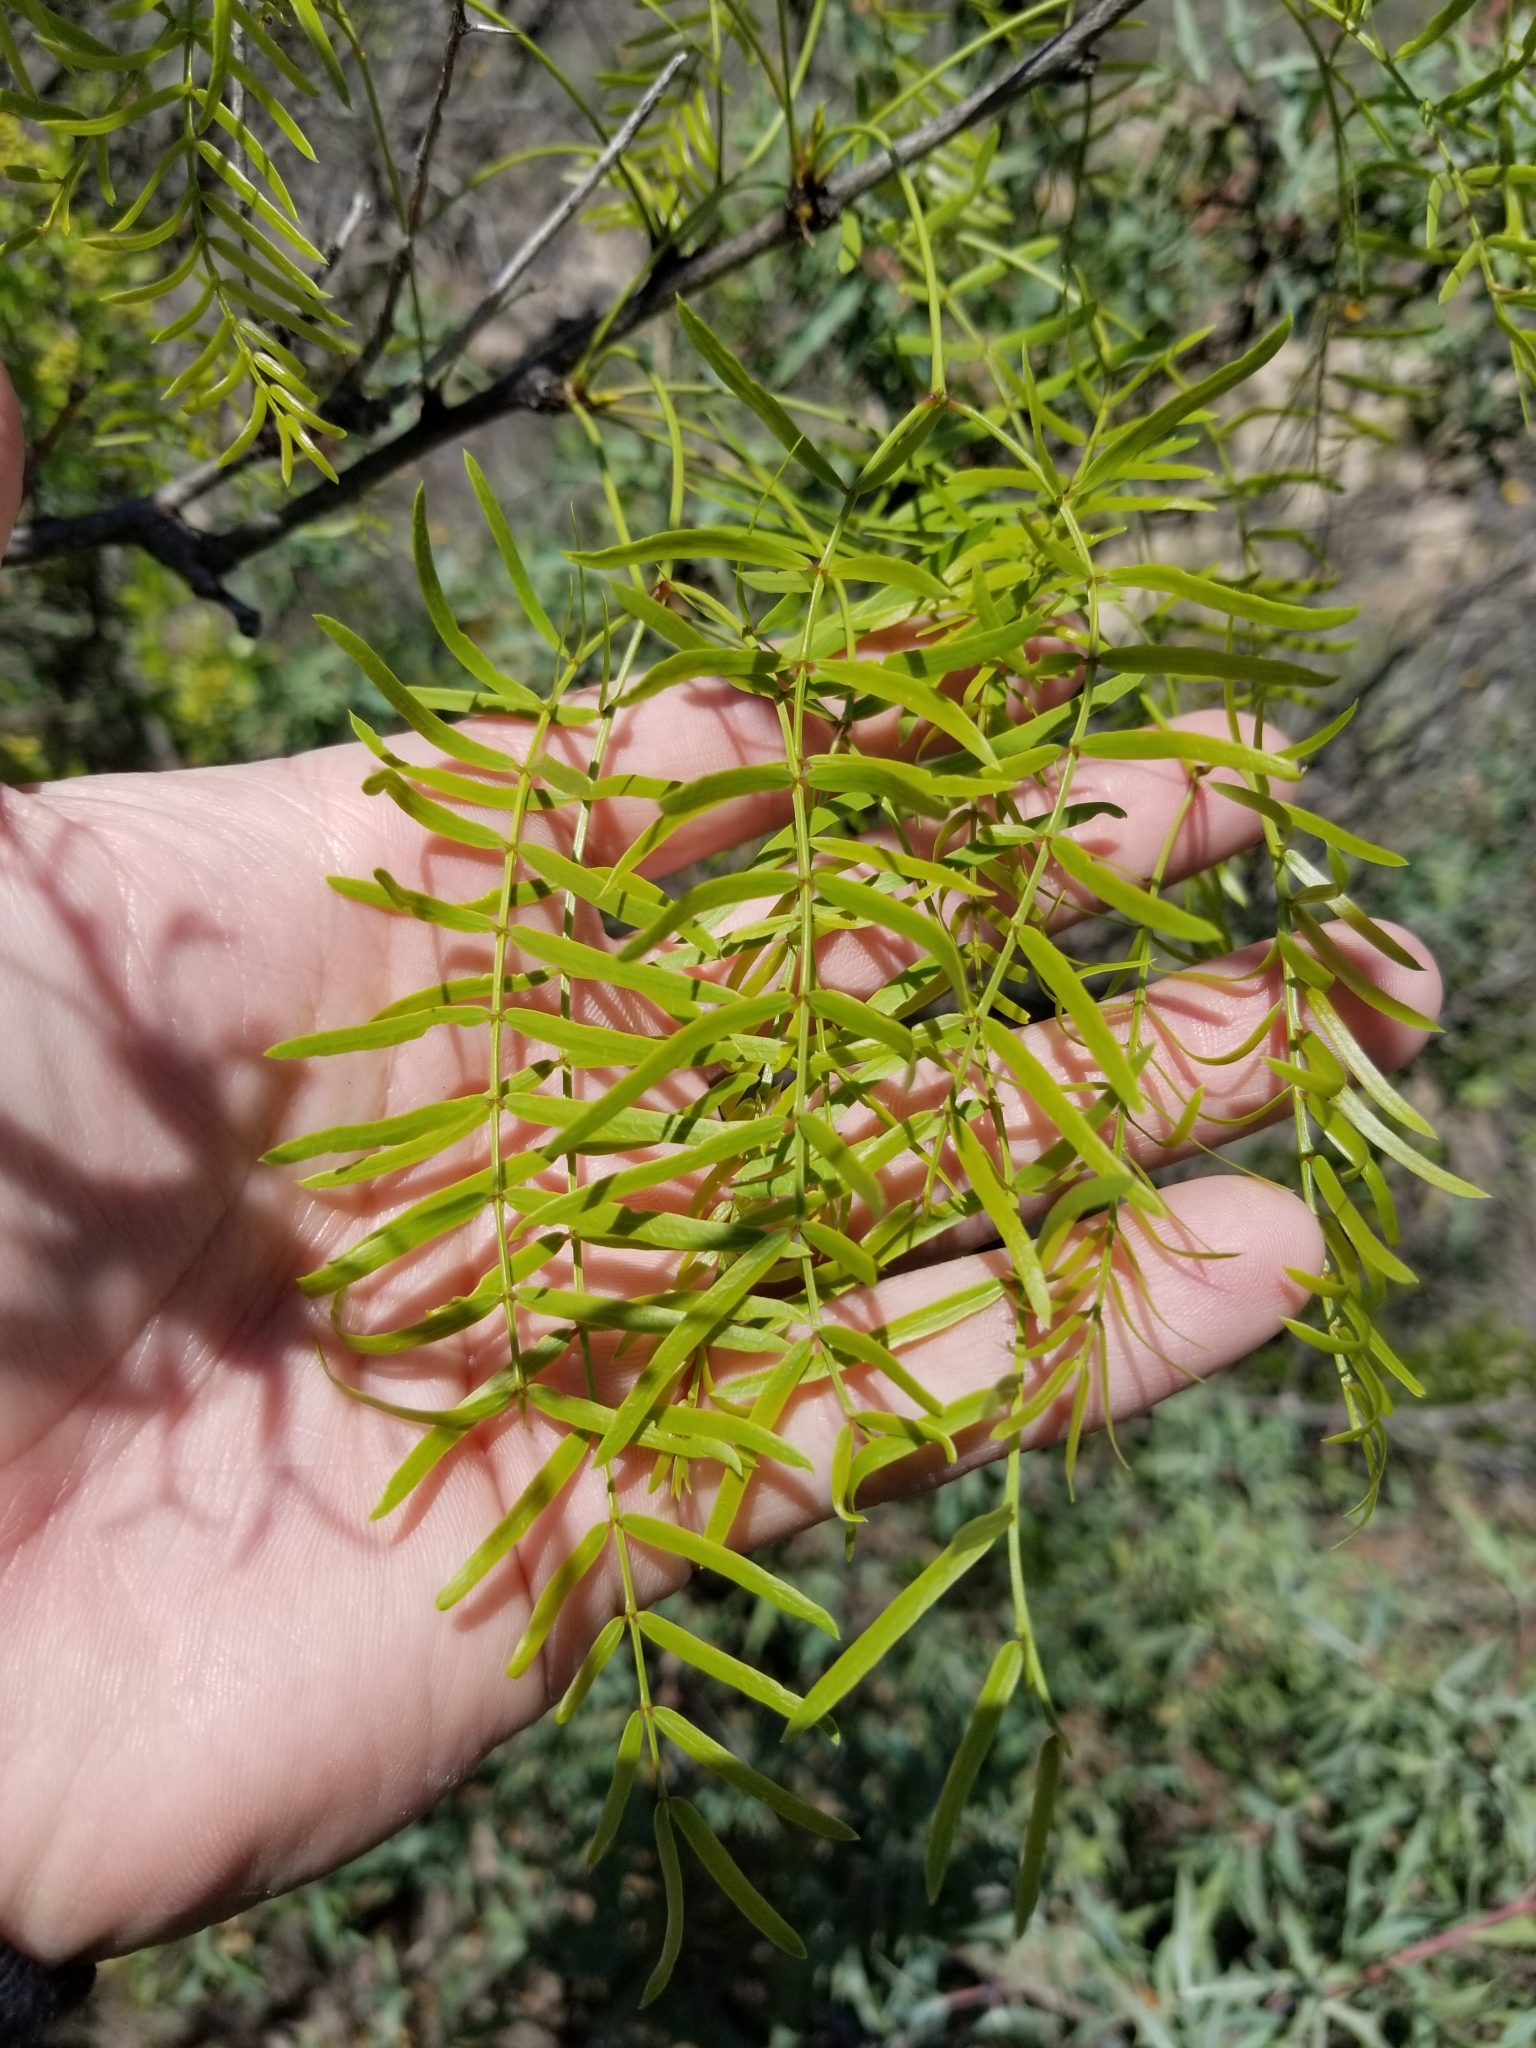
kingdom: Plantae
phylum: Tracheophyta
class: Magnoliopsida
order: Fabales
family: Fabaceae
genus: Prosopis
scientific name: Prosopis glandulosa
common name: Honey mesquite
